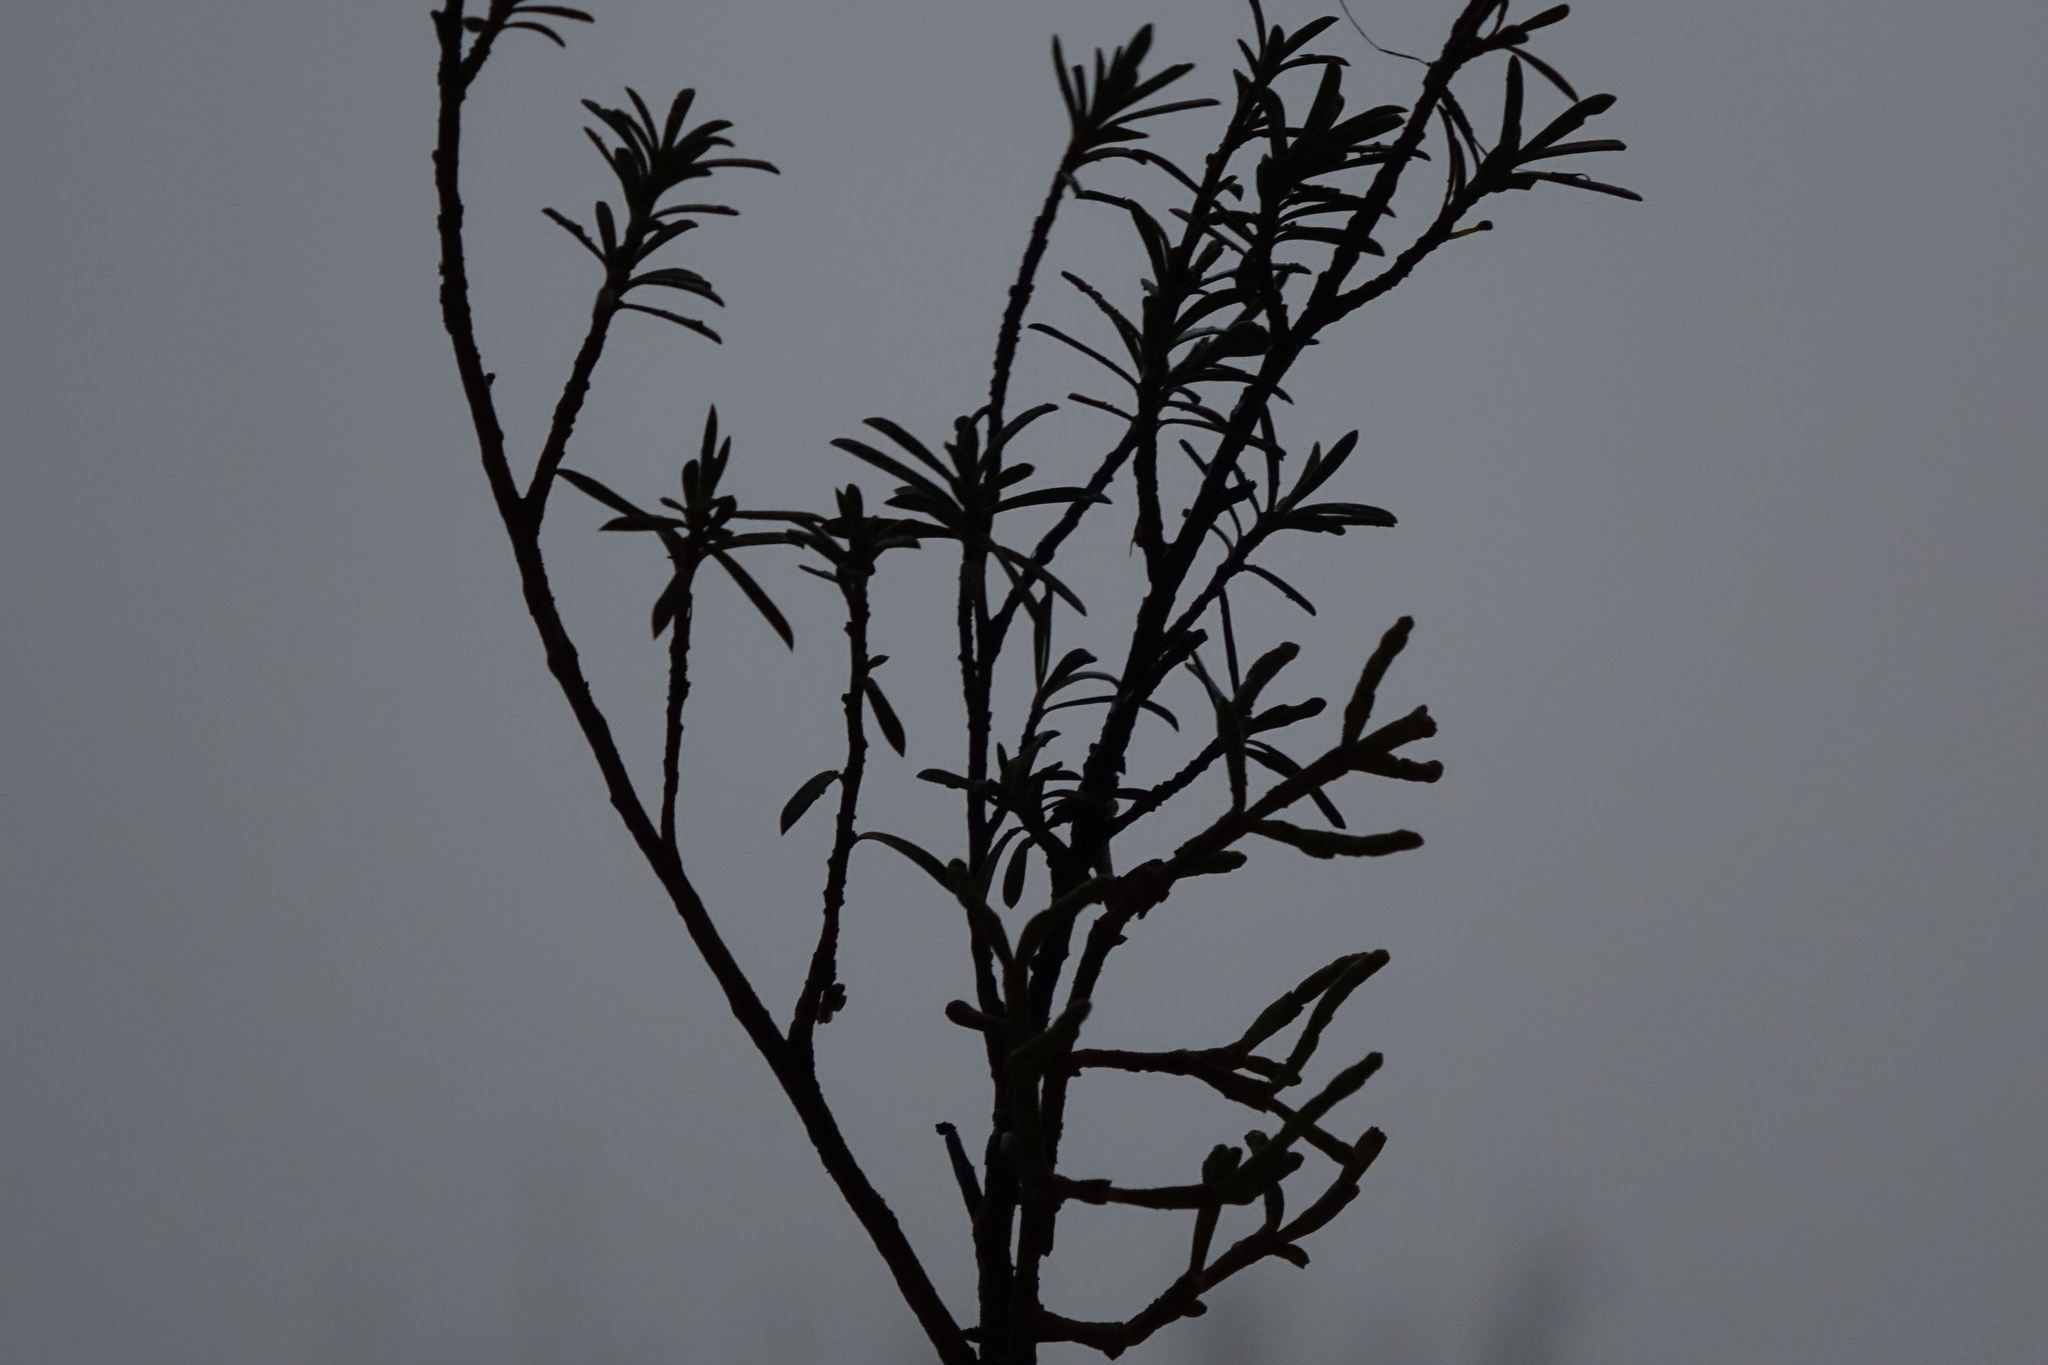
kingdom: Plantae
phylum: Tracheophyta
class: Magnoliopsida
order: Santalales
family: Viscaceae
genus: Korthalsella
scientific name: Korthalsella salicornioides
